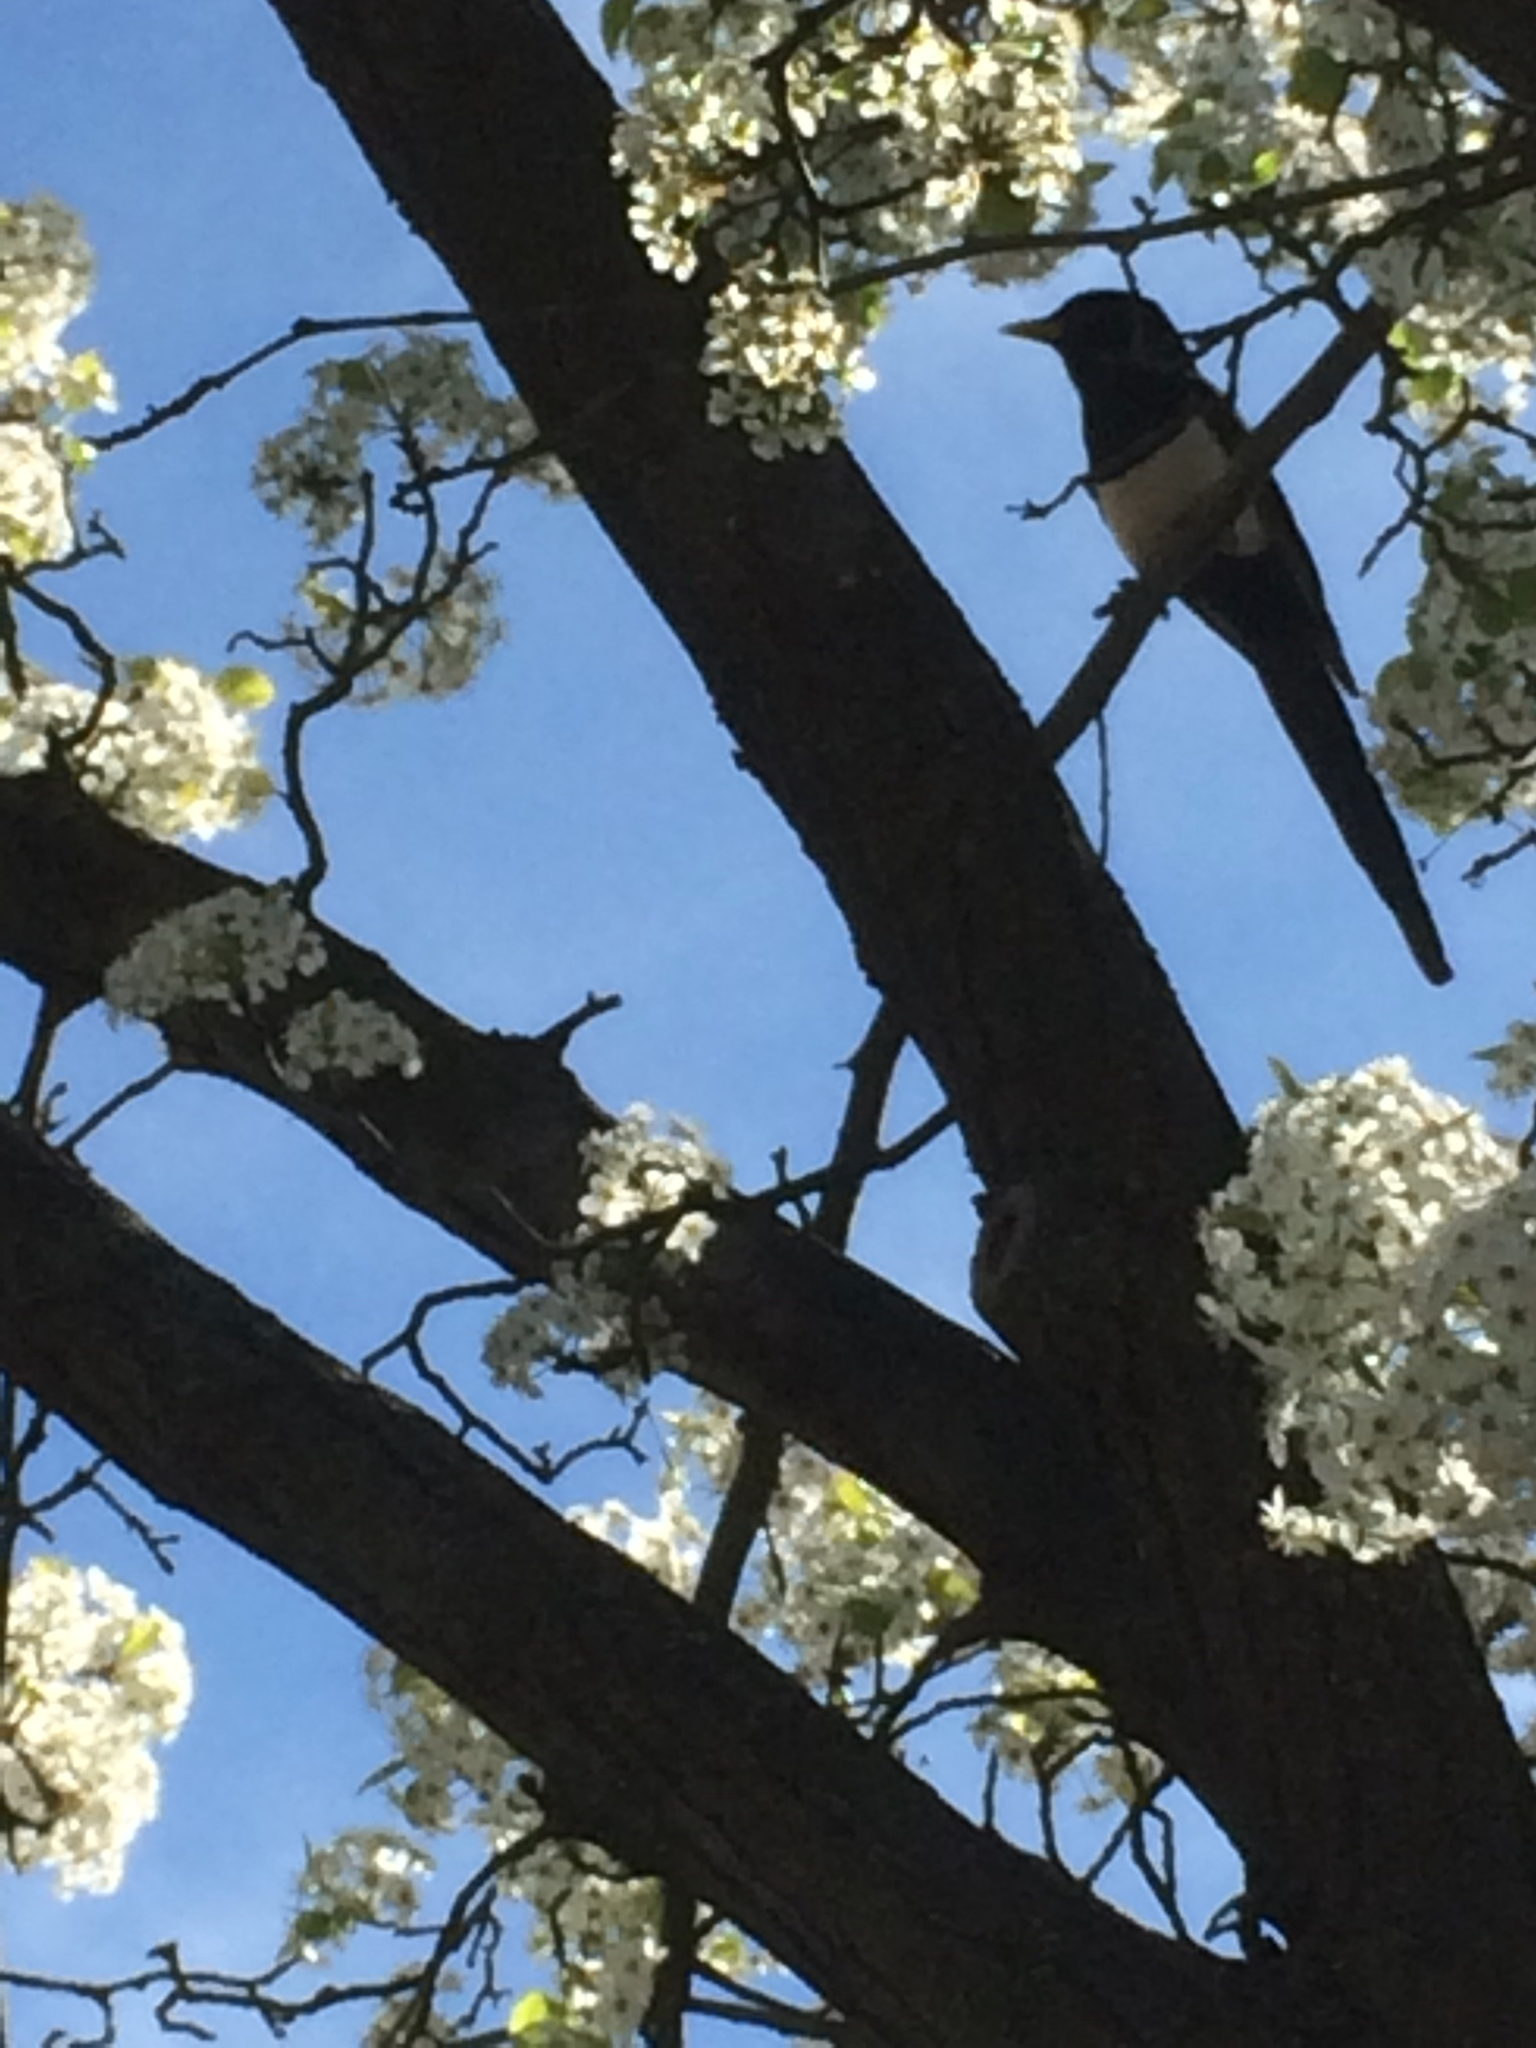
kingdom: Animalia
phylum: Chordata
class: Aves
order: Passeriformes
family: Corvidae
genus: Pica
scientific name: Pica nuttalli
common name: Yellow-billed magpie
